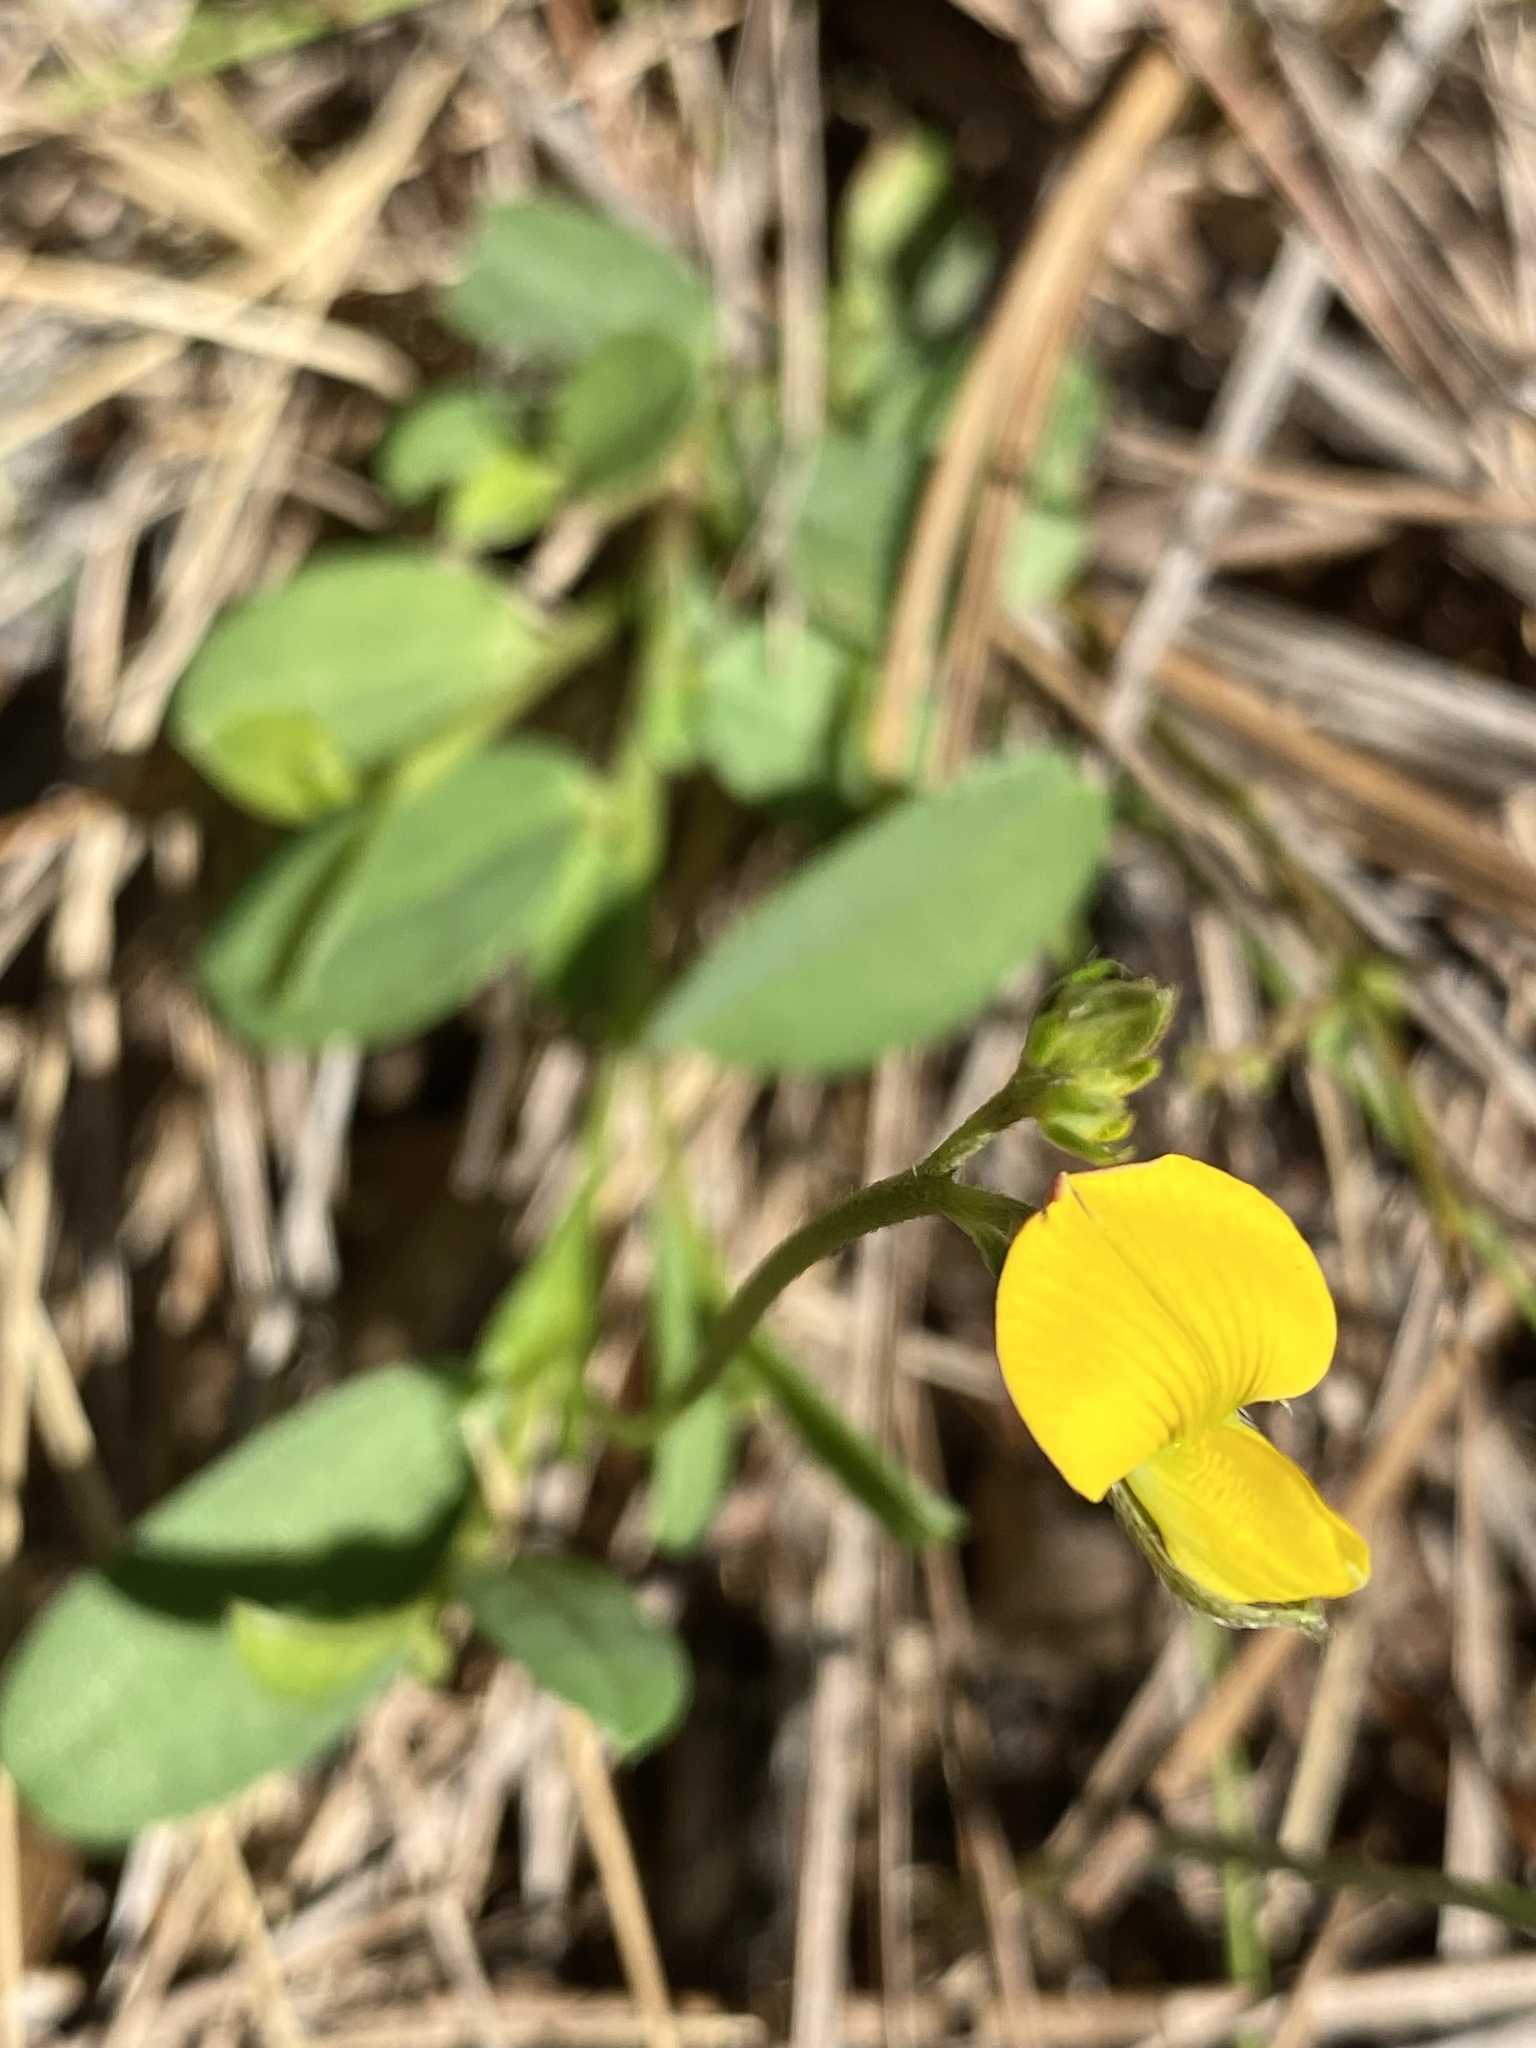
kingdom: Plantae
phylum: Tracheophyta
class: Magnoliopsida
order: Fabales
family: Fabaceae
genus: Crotalaria
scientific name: Crotalaria rotundifolia
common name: Prostrate rattlebox
